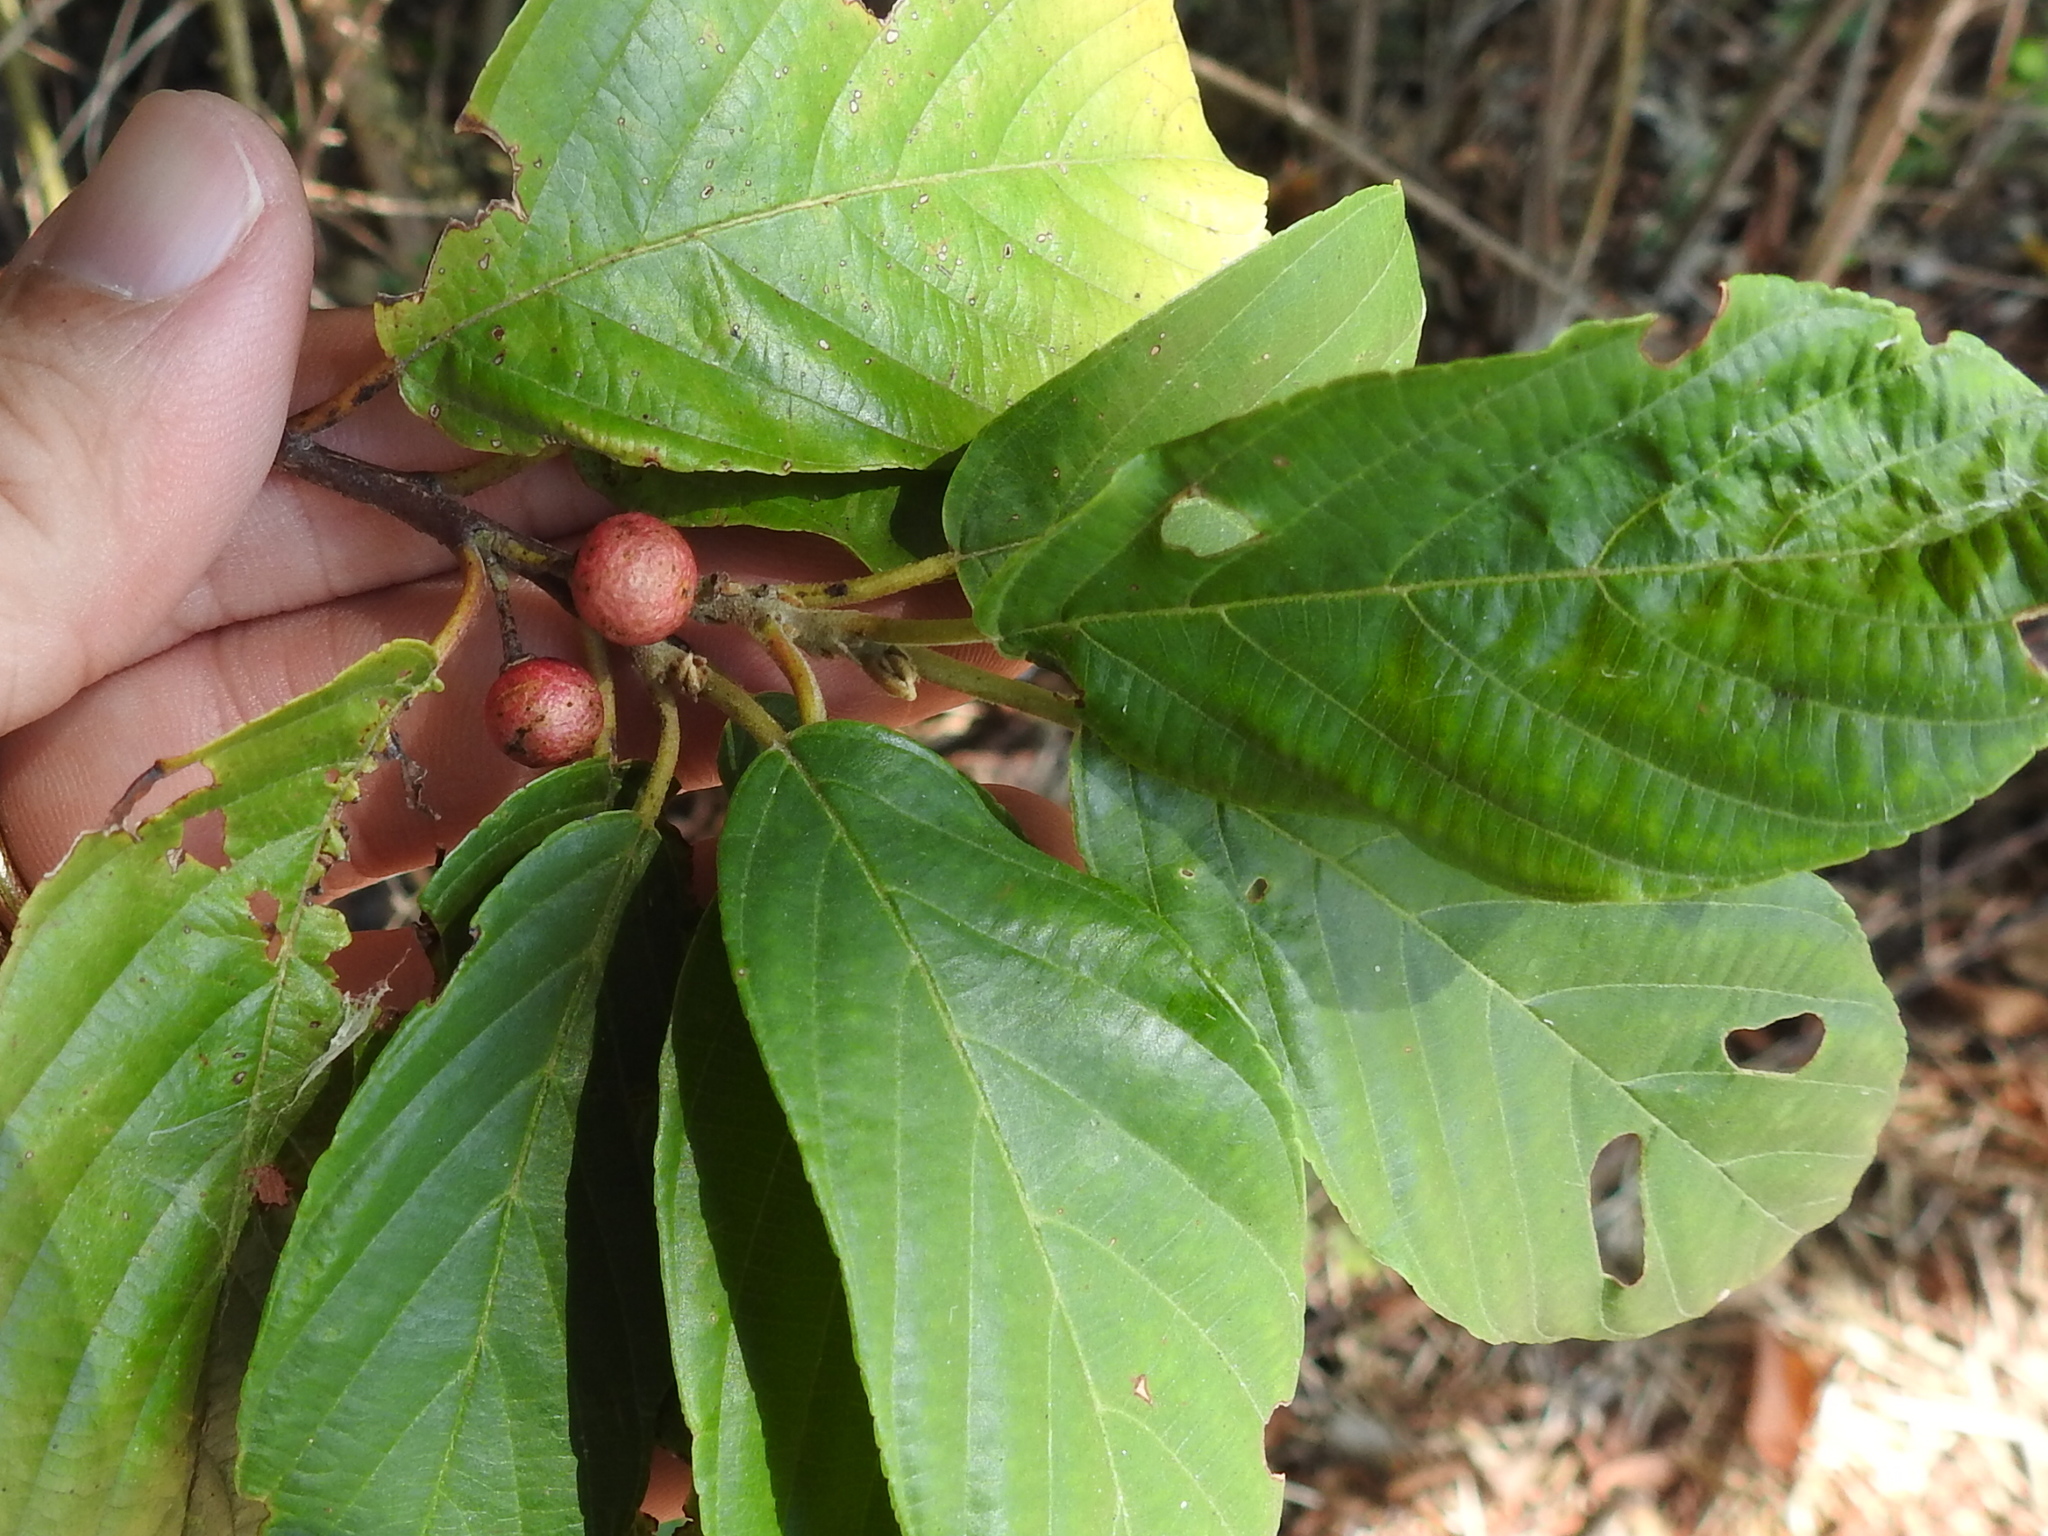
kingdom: Plantae
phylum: Tracheophyta
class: Magnoliopsida
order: Rosales
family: Rhamnaceae
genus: Frangula
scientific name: Frangula caroliniana
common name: Carolina buckthorn
